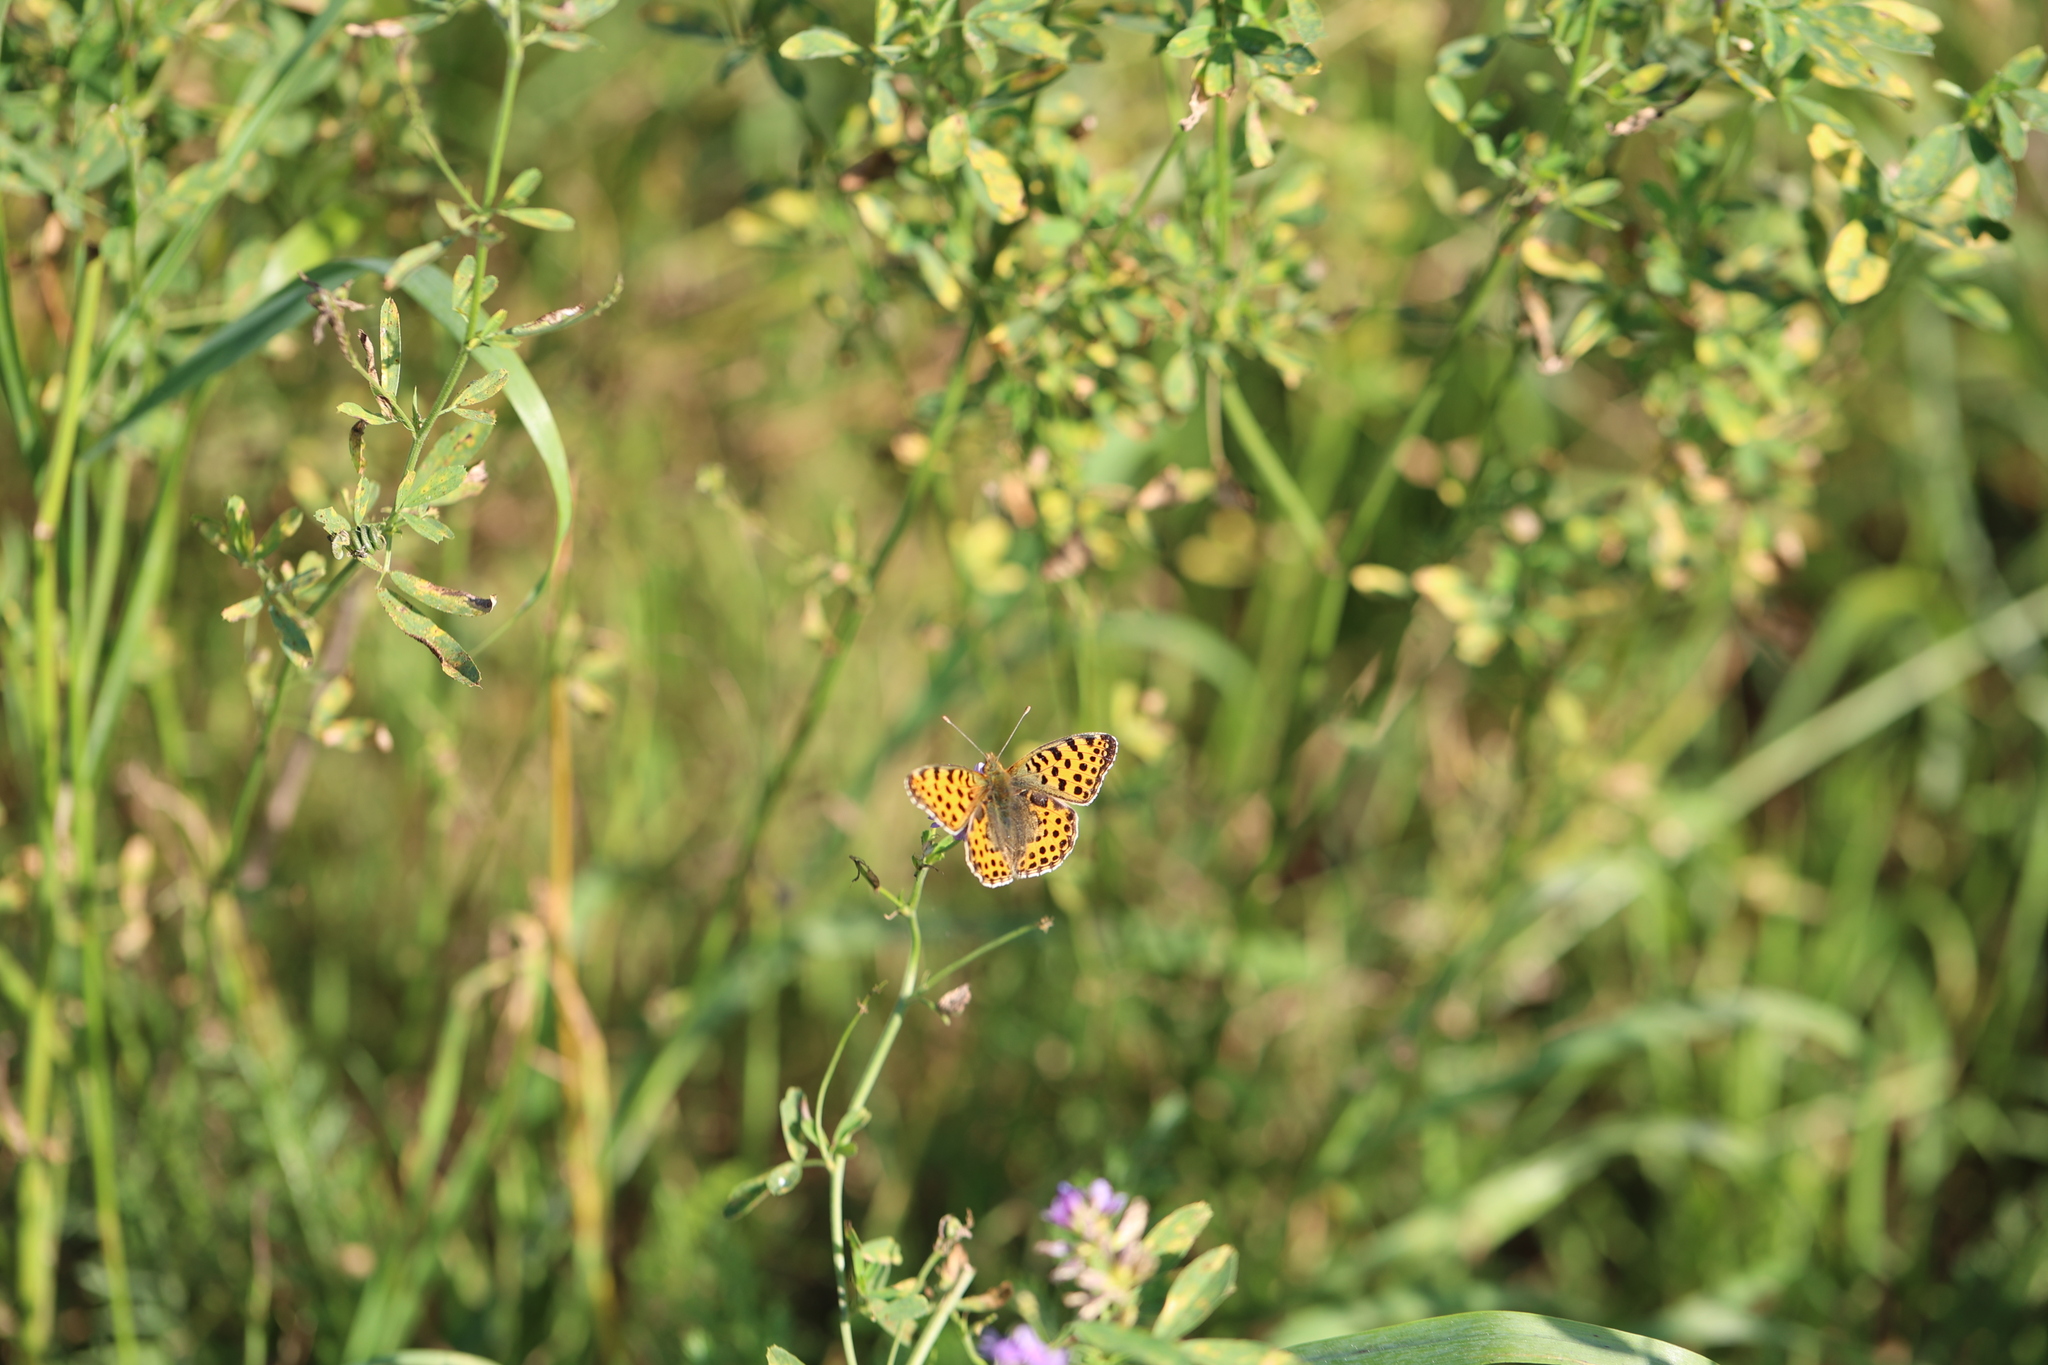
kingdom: Animalia
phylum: Arthropoda
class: Insecta
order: Lepidoptera
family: Nymphalidae
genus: Issoria
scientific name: Issoria lathonia
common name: Queen of spain fritillary
